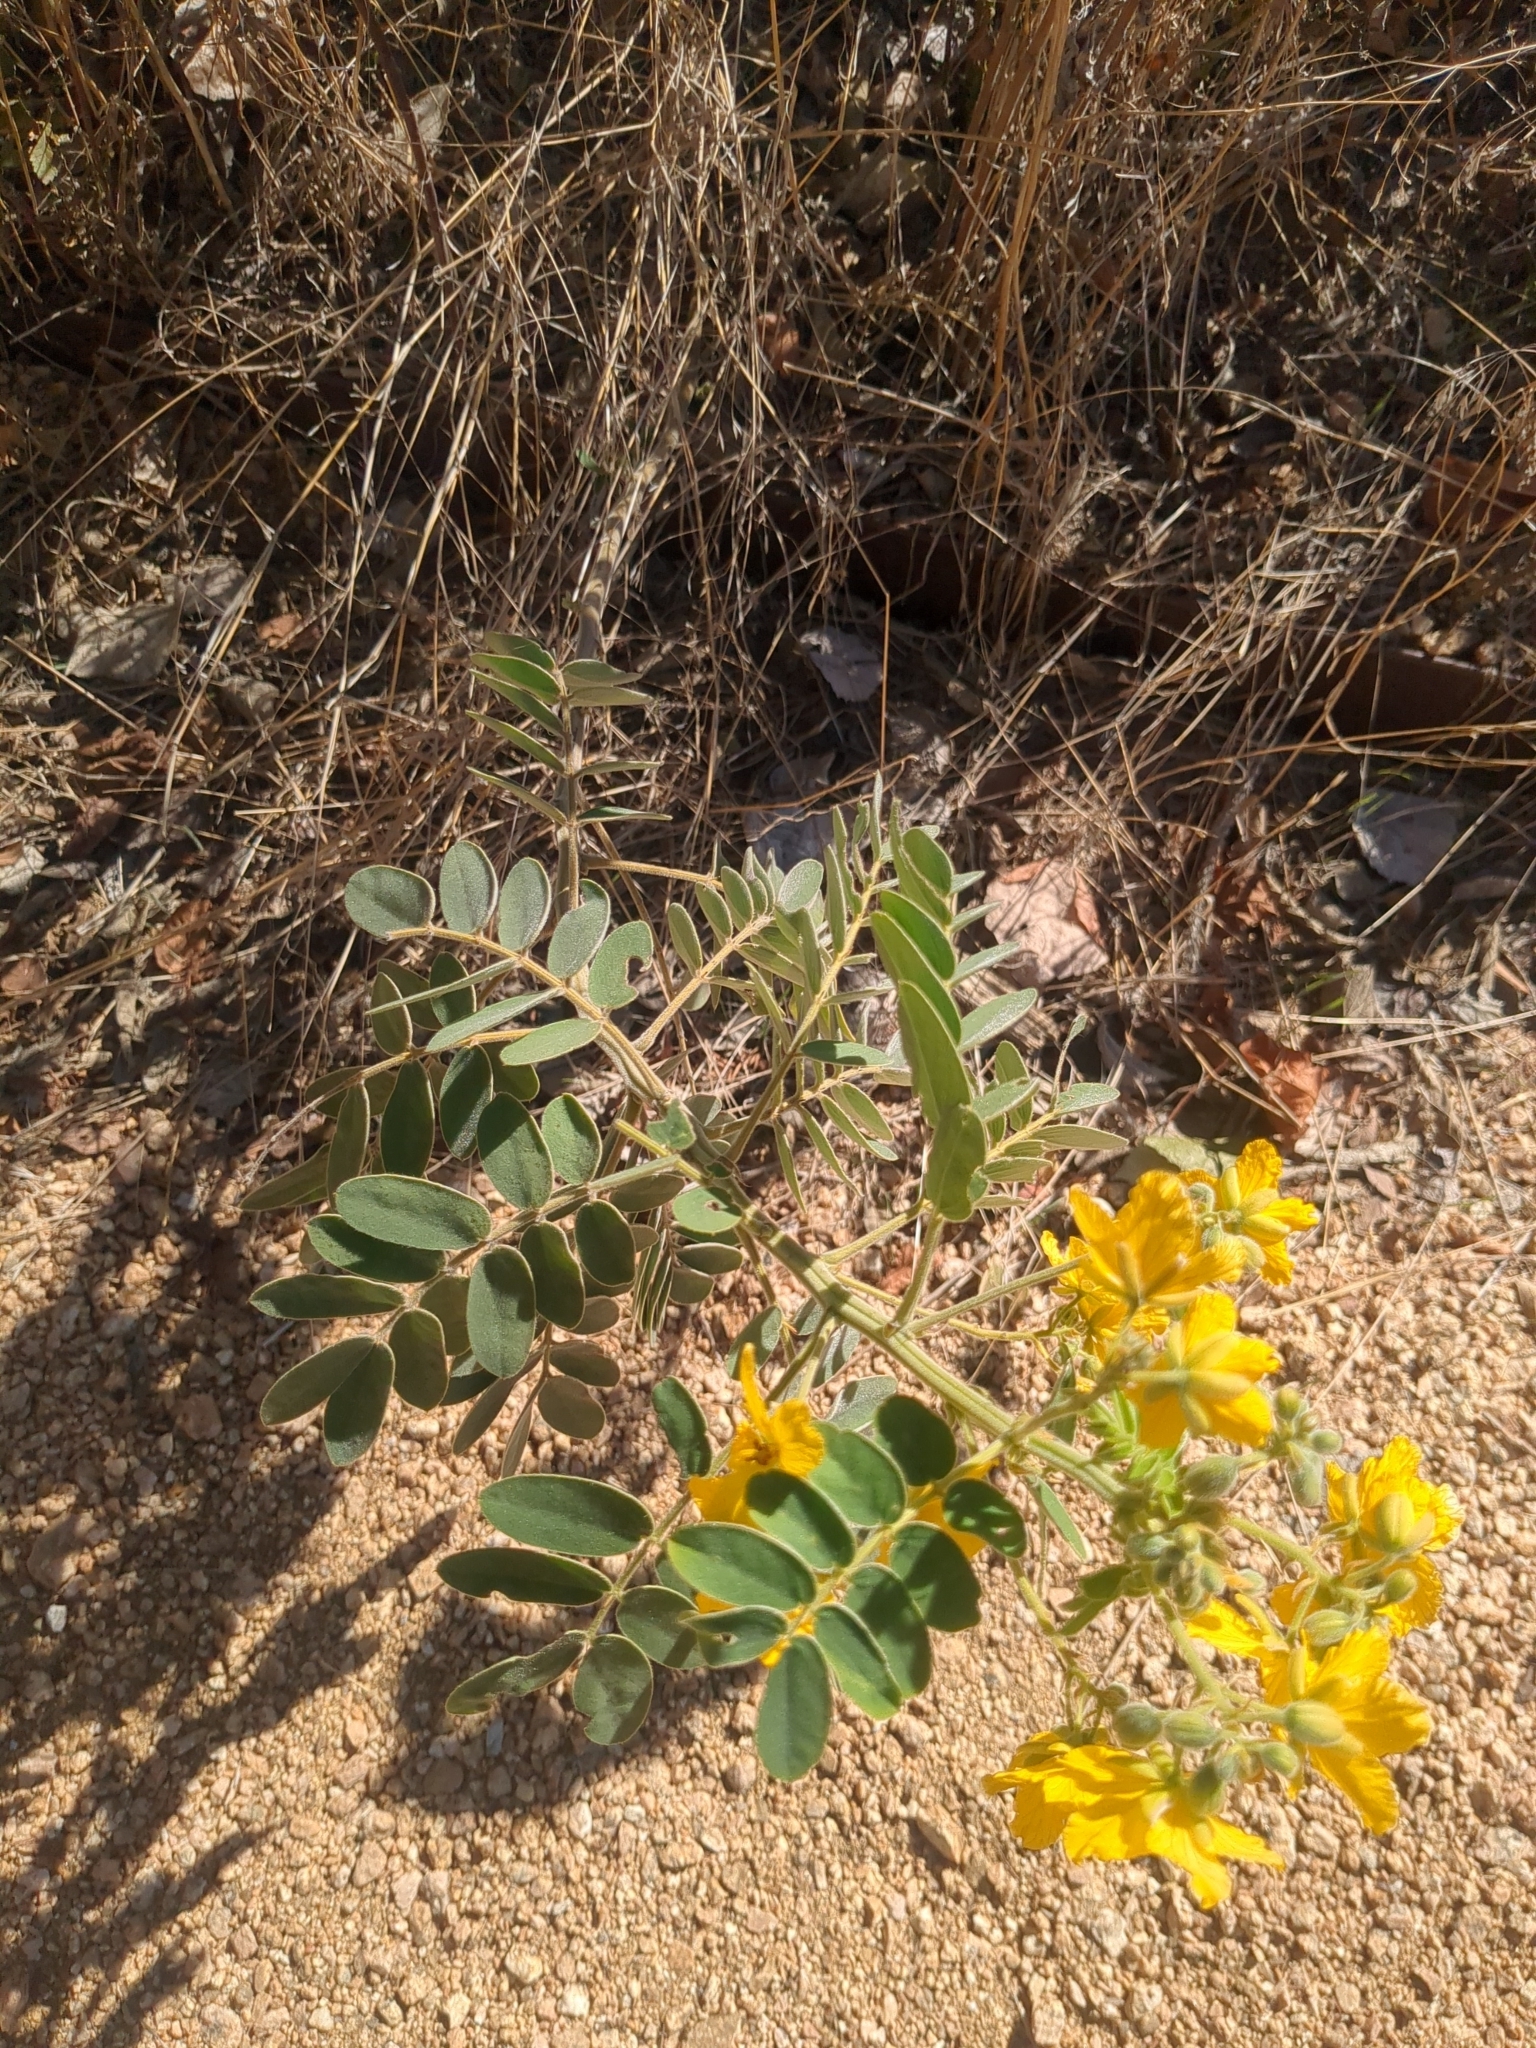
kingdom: Plantae
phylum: Tracheophyta
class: Magnoliopsida
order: Fabales
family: Fabaceae
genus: Senna
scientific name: Senna lindheimeriana
